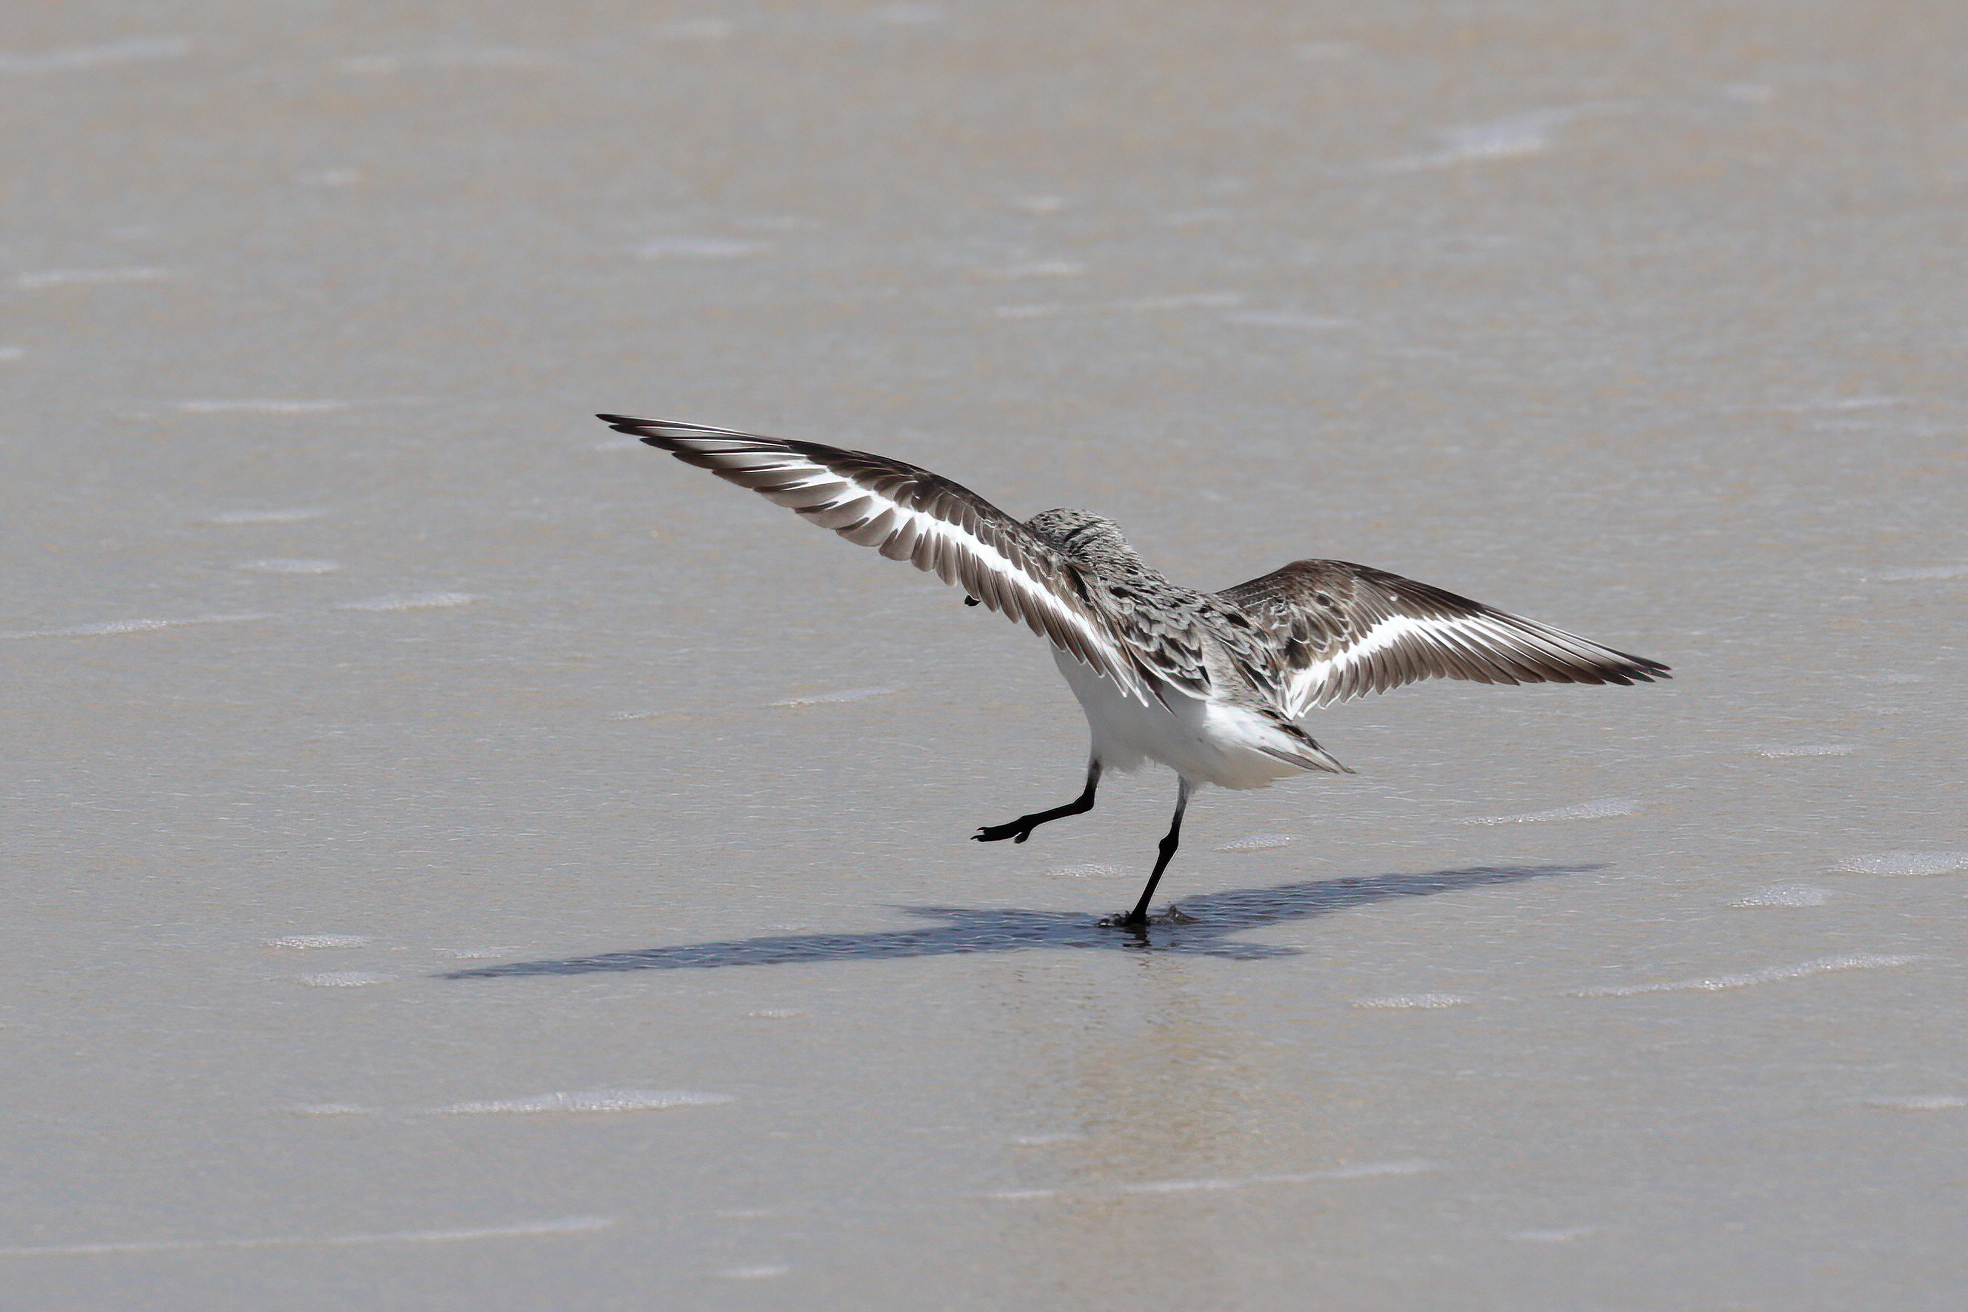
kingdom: Animalia
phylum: Chordata
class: Aves
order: Charadriiformes
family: Scolopacidae
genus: Calidris
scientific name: Calidris alba
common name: Sanderling
